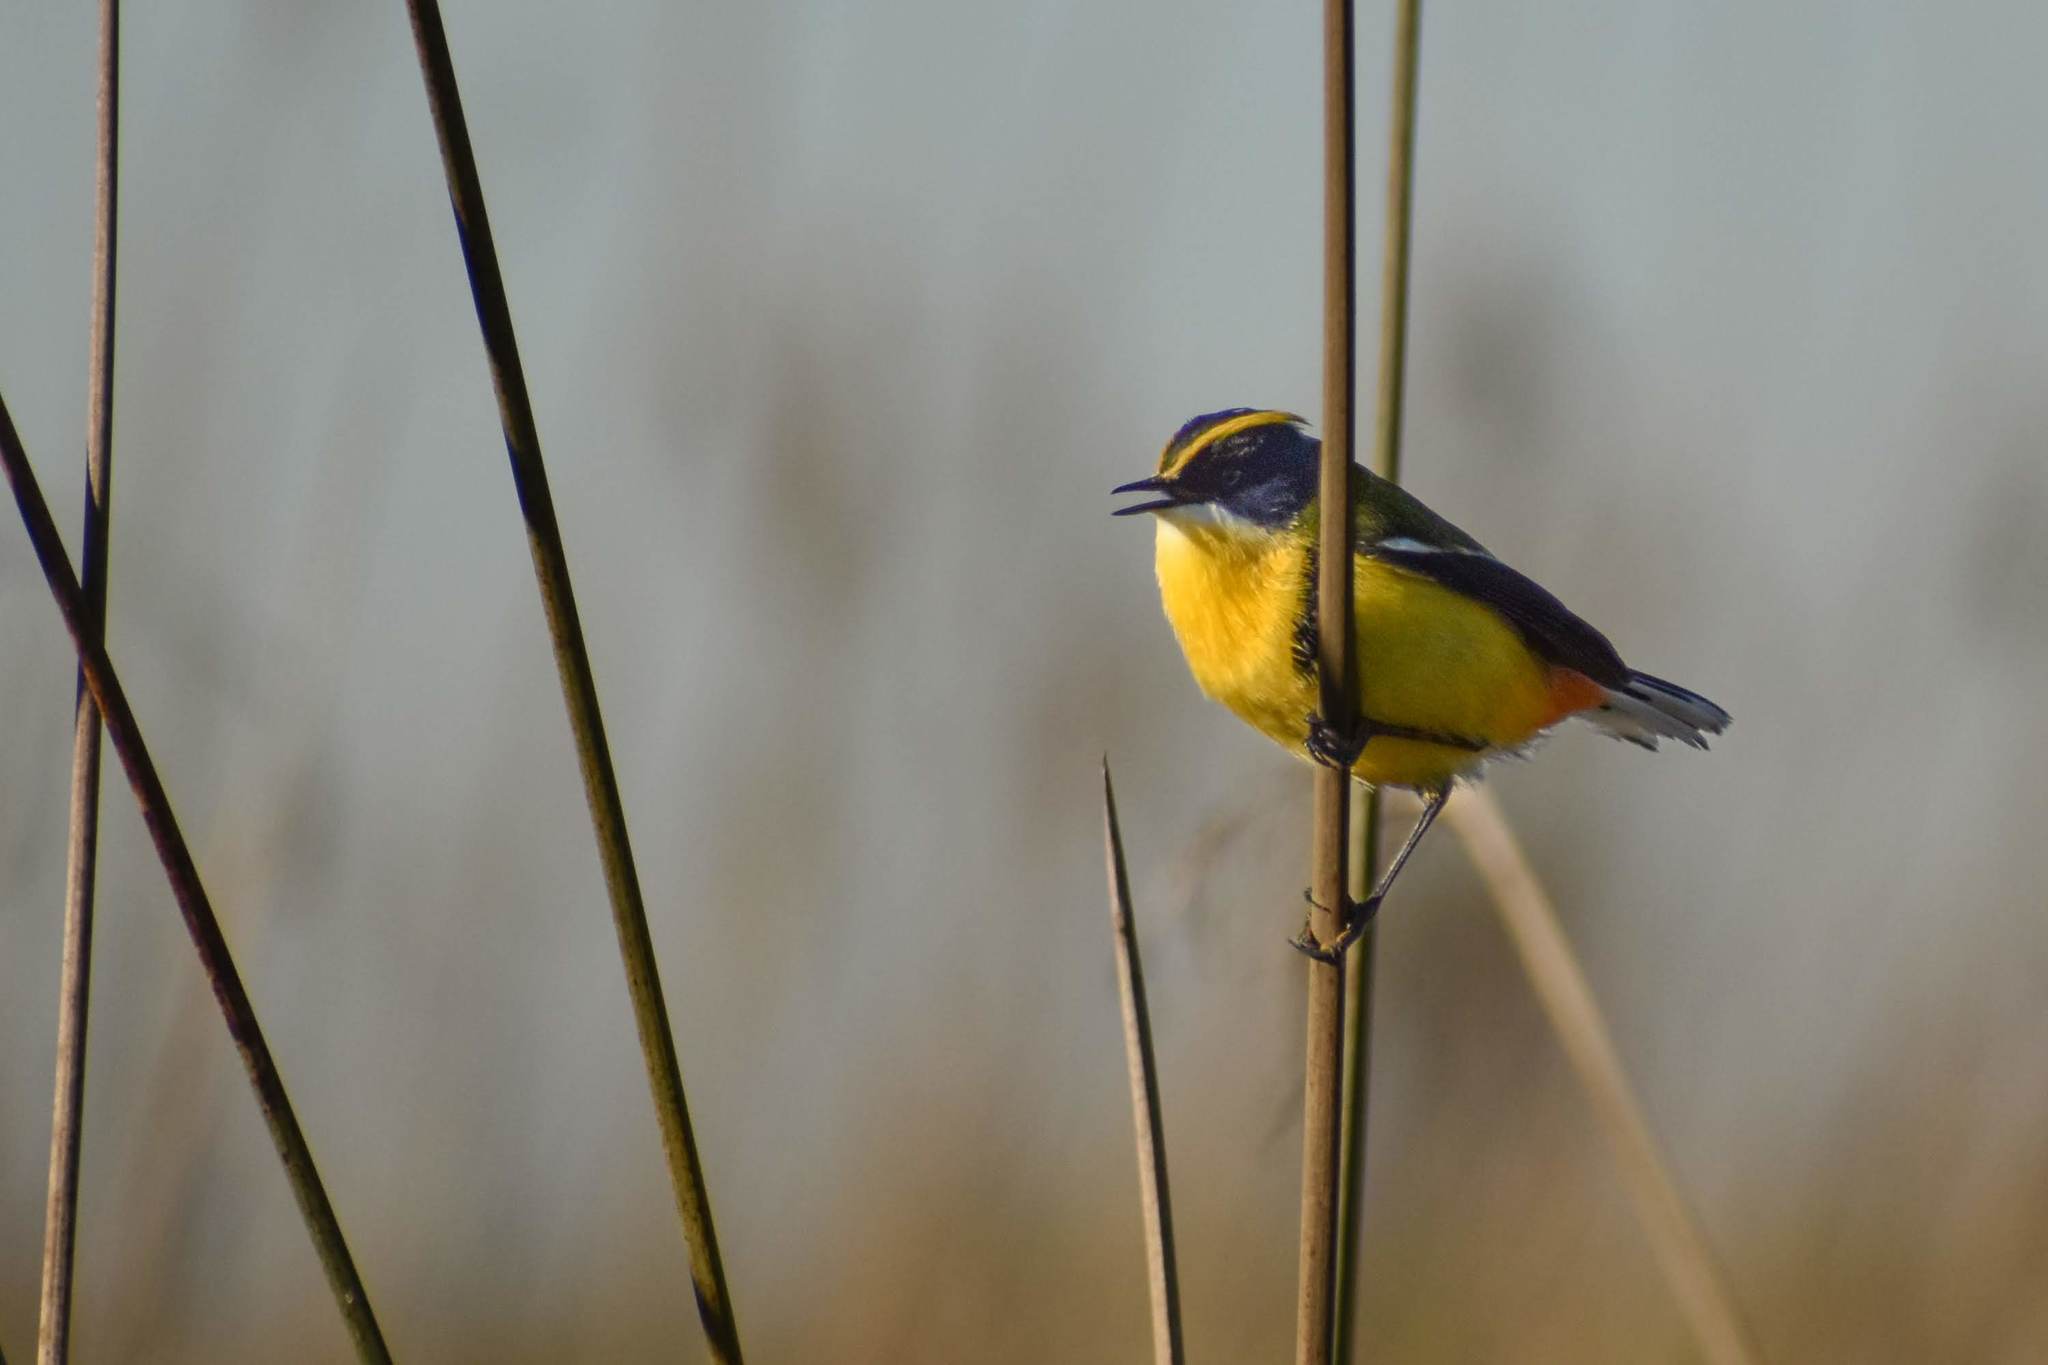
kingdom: Animalia
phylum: Chordata
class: Aves
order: Passeriformes
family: Tyrannidae
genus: Tachuris
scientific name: Tachuris rubrigastra
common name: Many-colored rush tyrant
